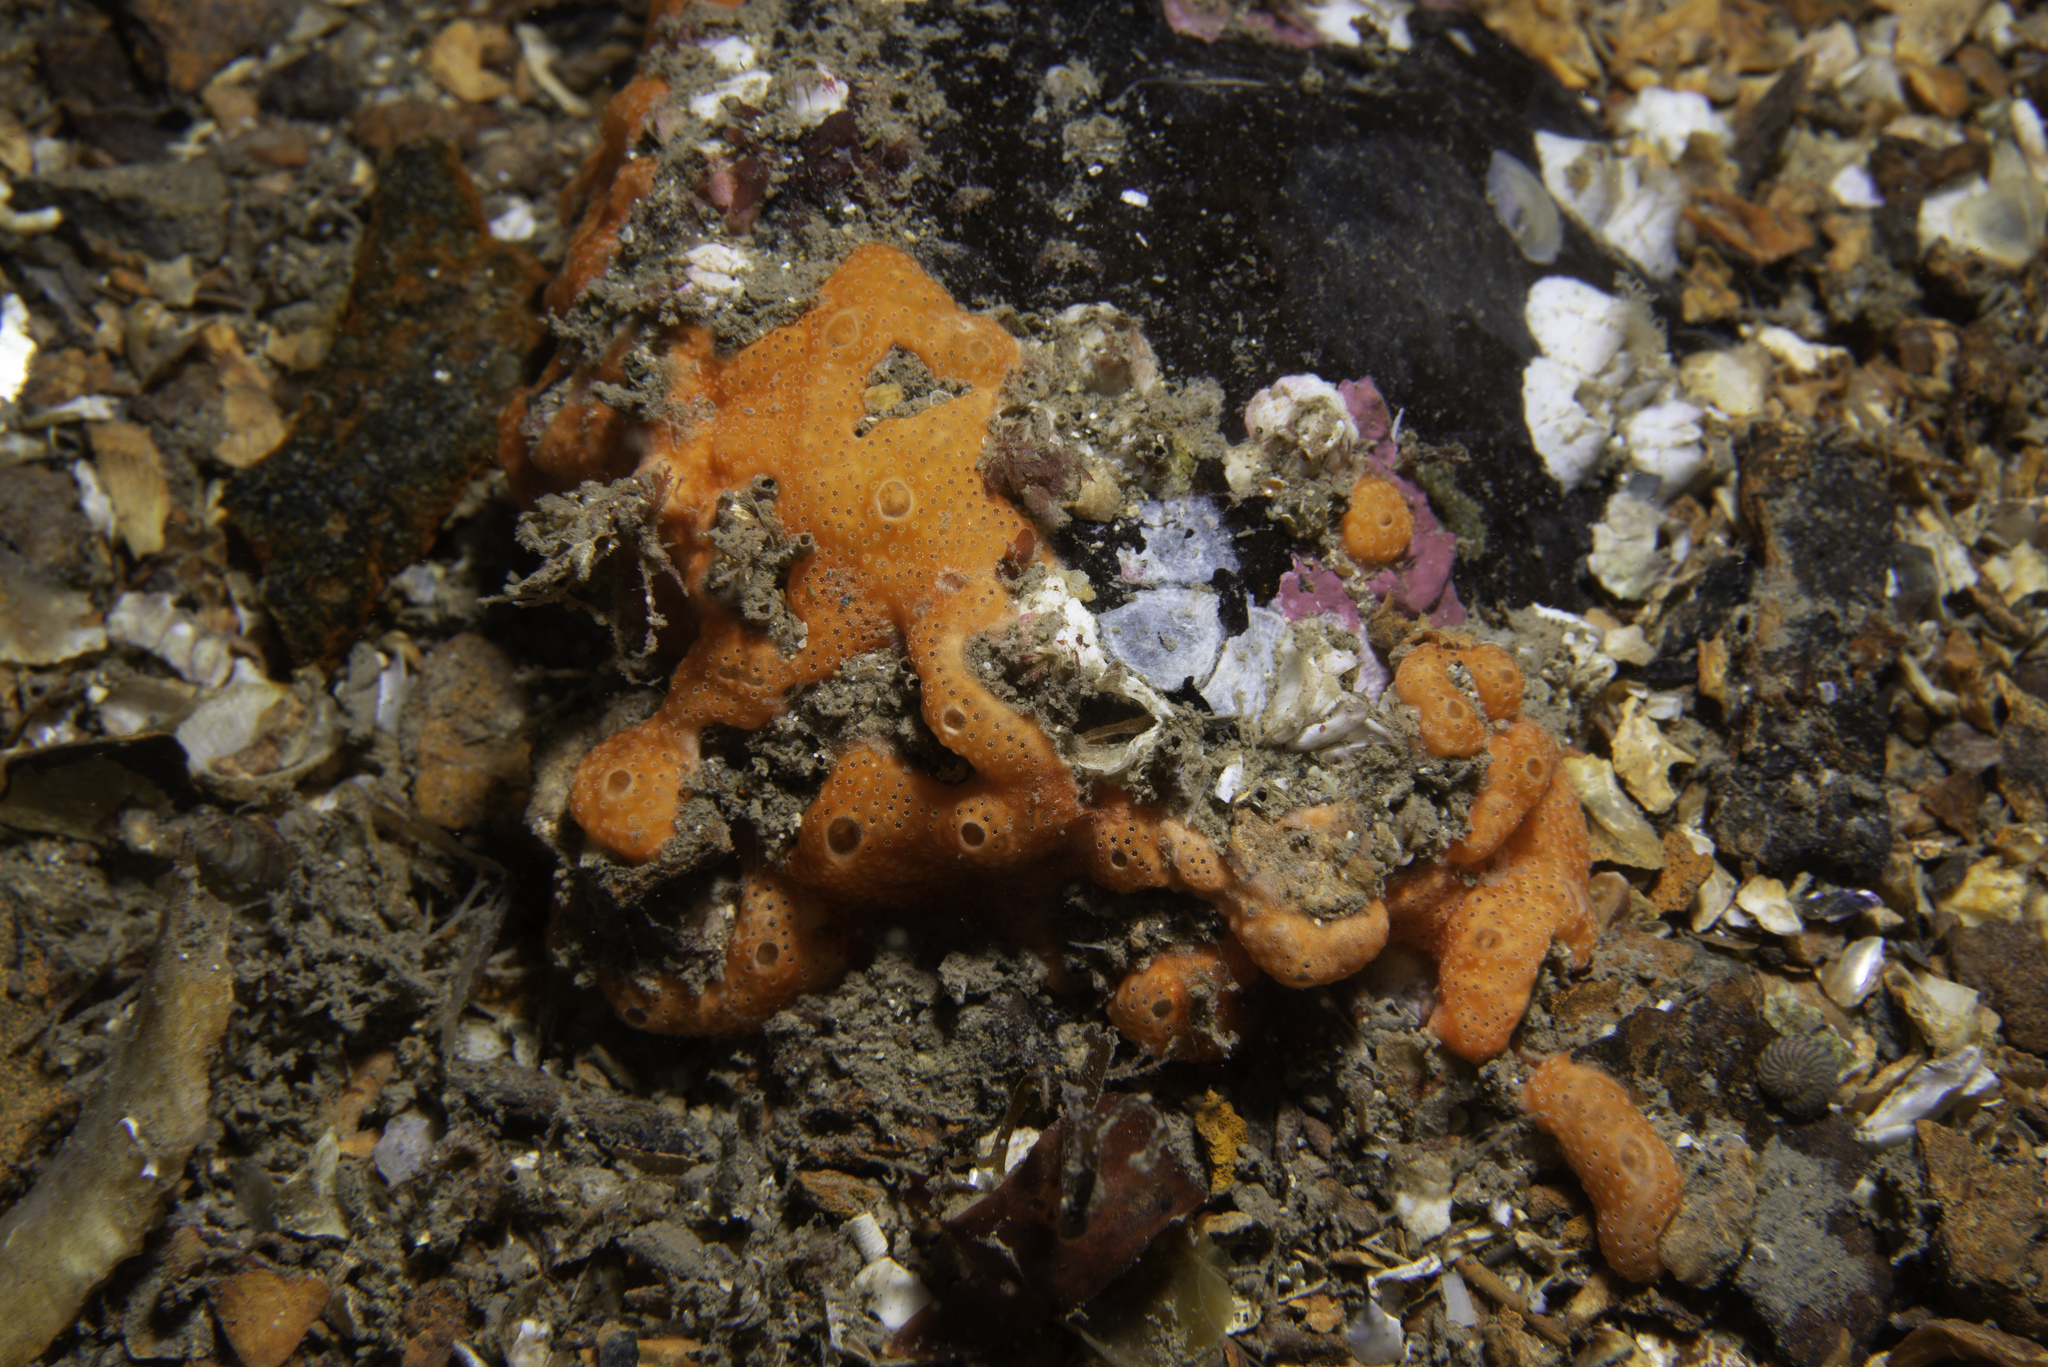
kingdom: Animalia
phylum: Chordata
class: Ascidiacea
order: Aplousobranchia
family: Didemnidae
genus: Didemnum
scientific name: Didemnum pseudofulgens
